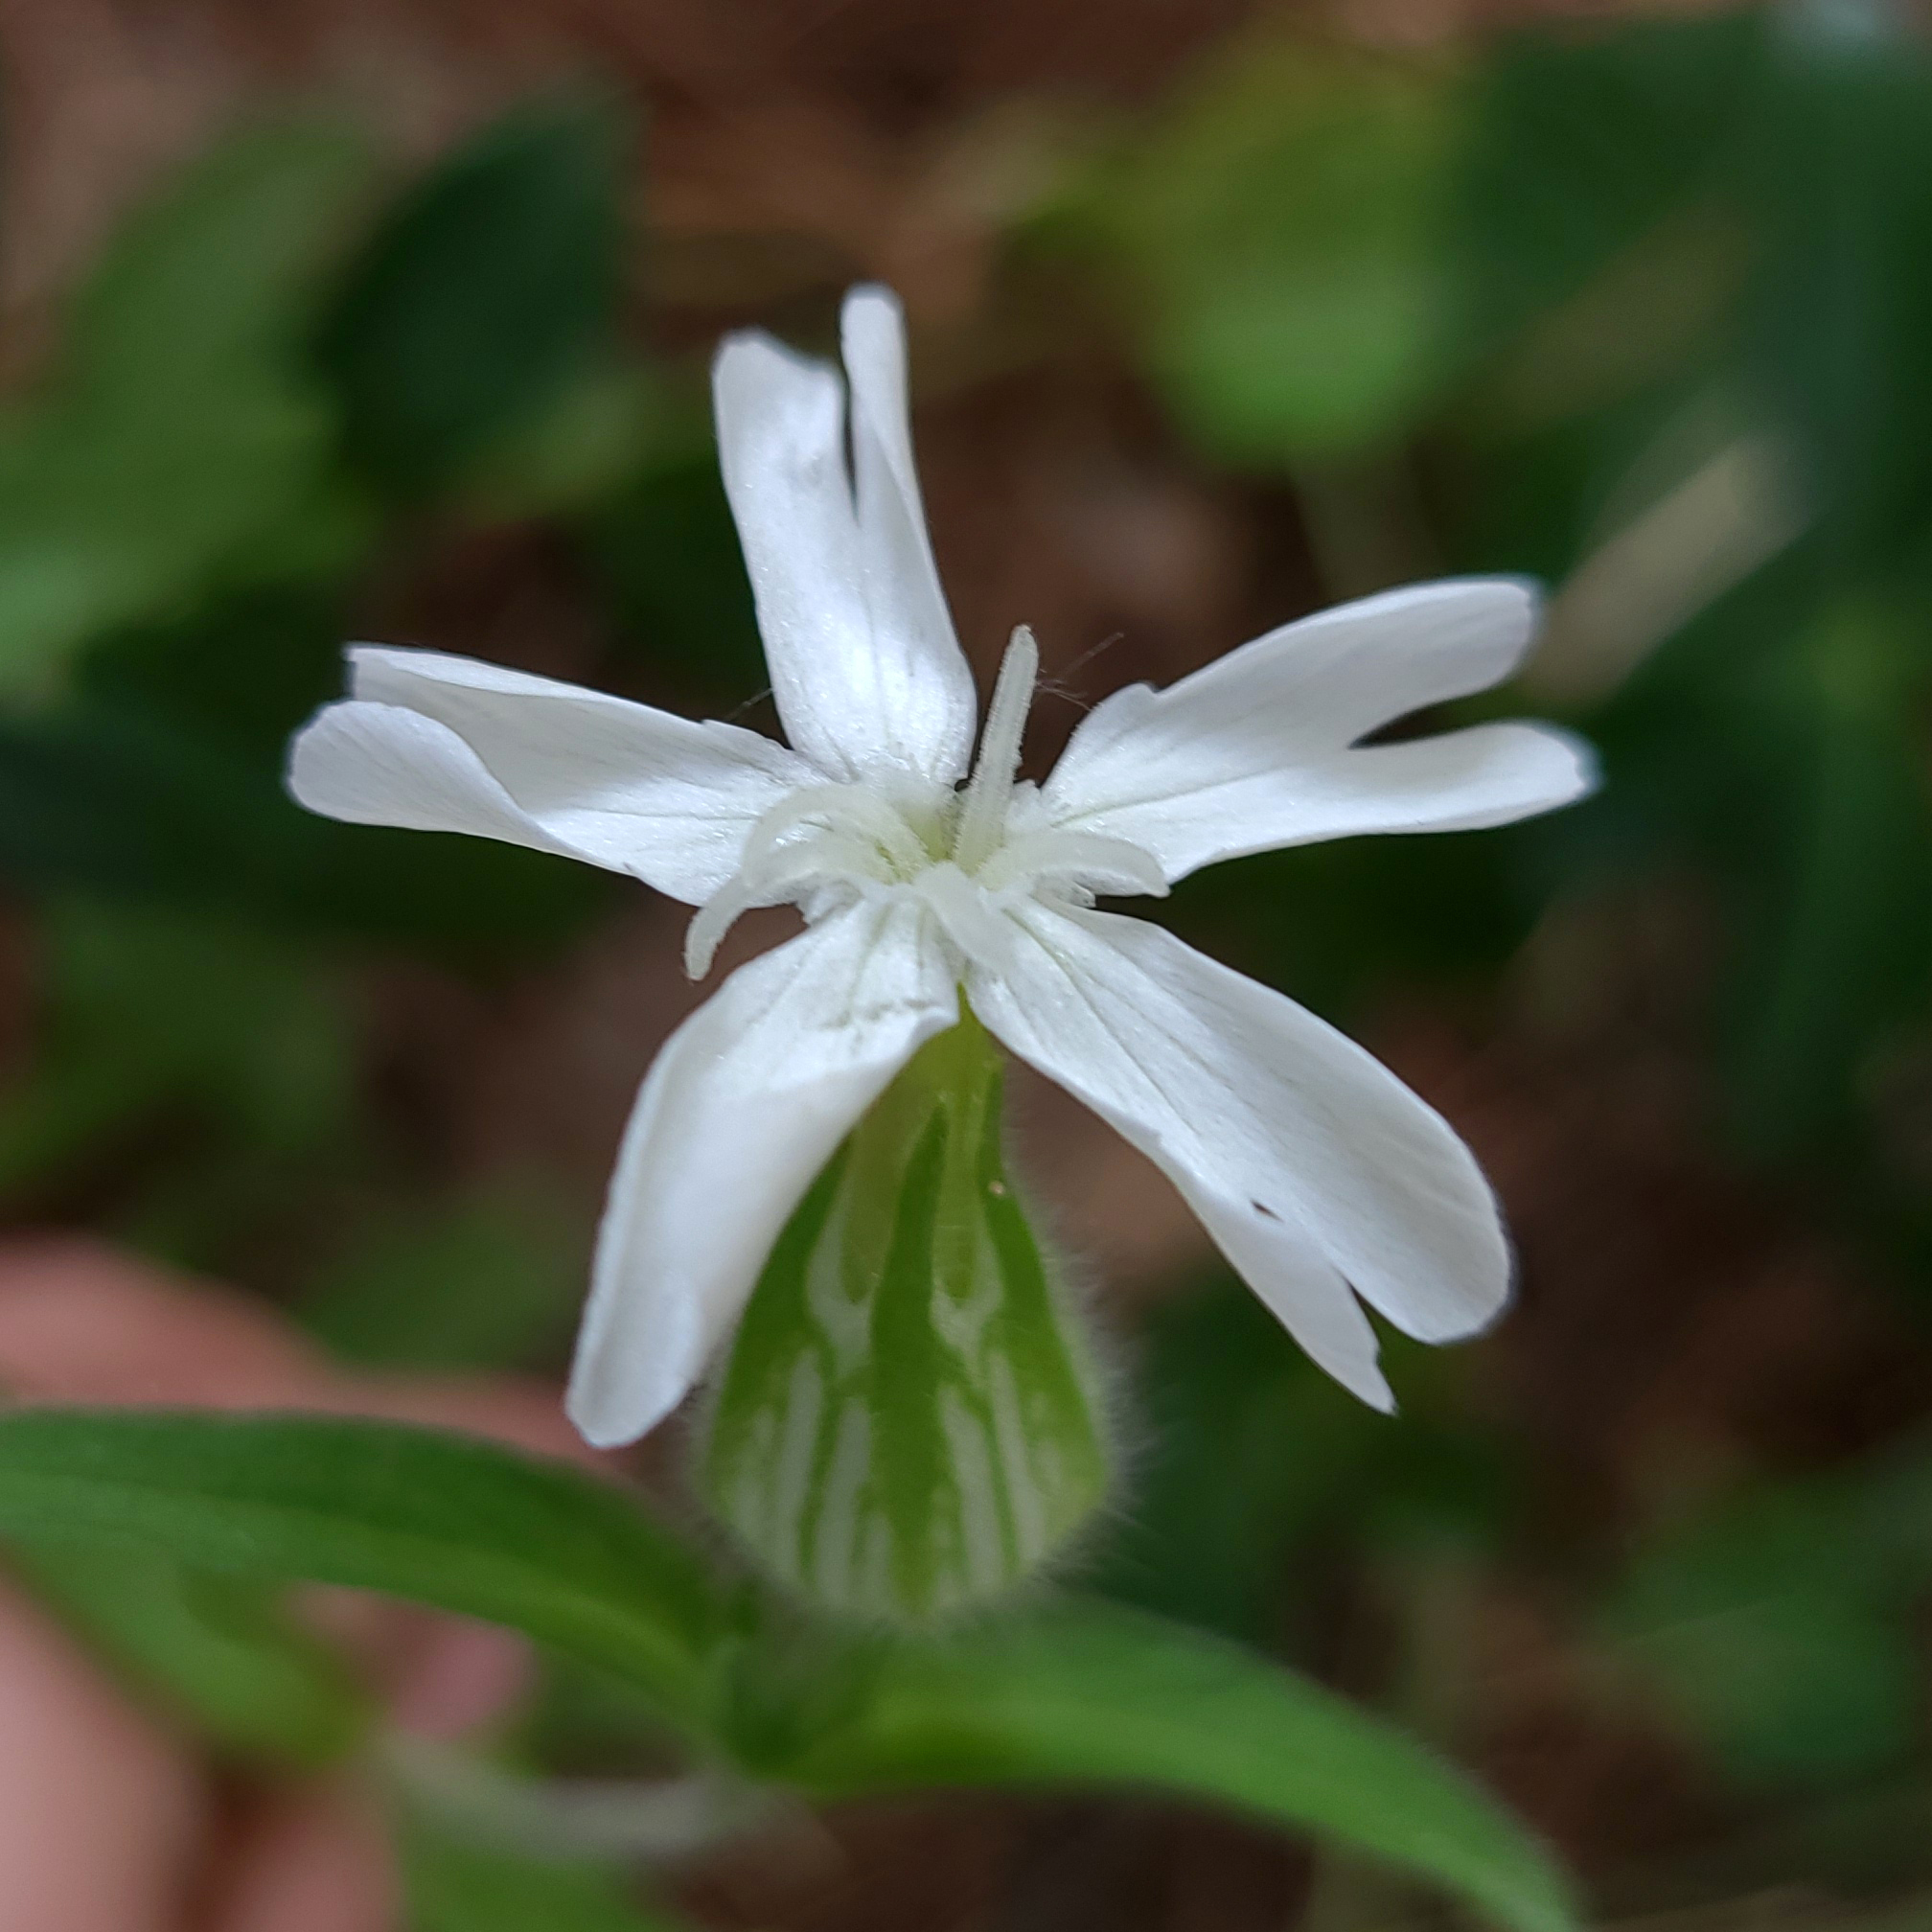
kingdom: Plantae
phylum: Tracheophyta
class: Magnoliopsida
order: Caryophyllales
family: Caryophyllaceae
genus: Silene
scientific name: Silene latifolia
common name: White campion
